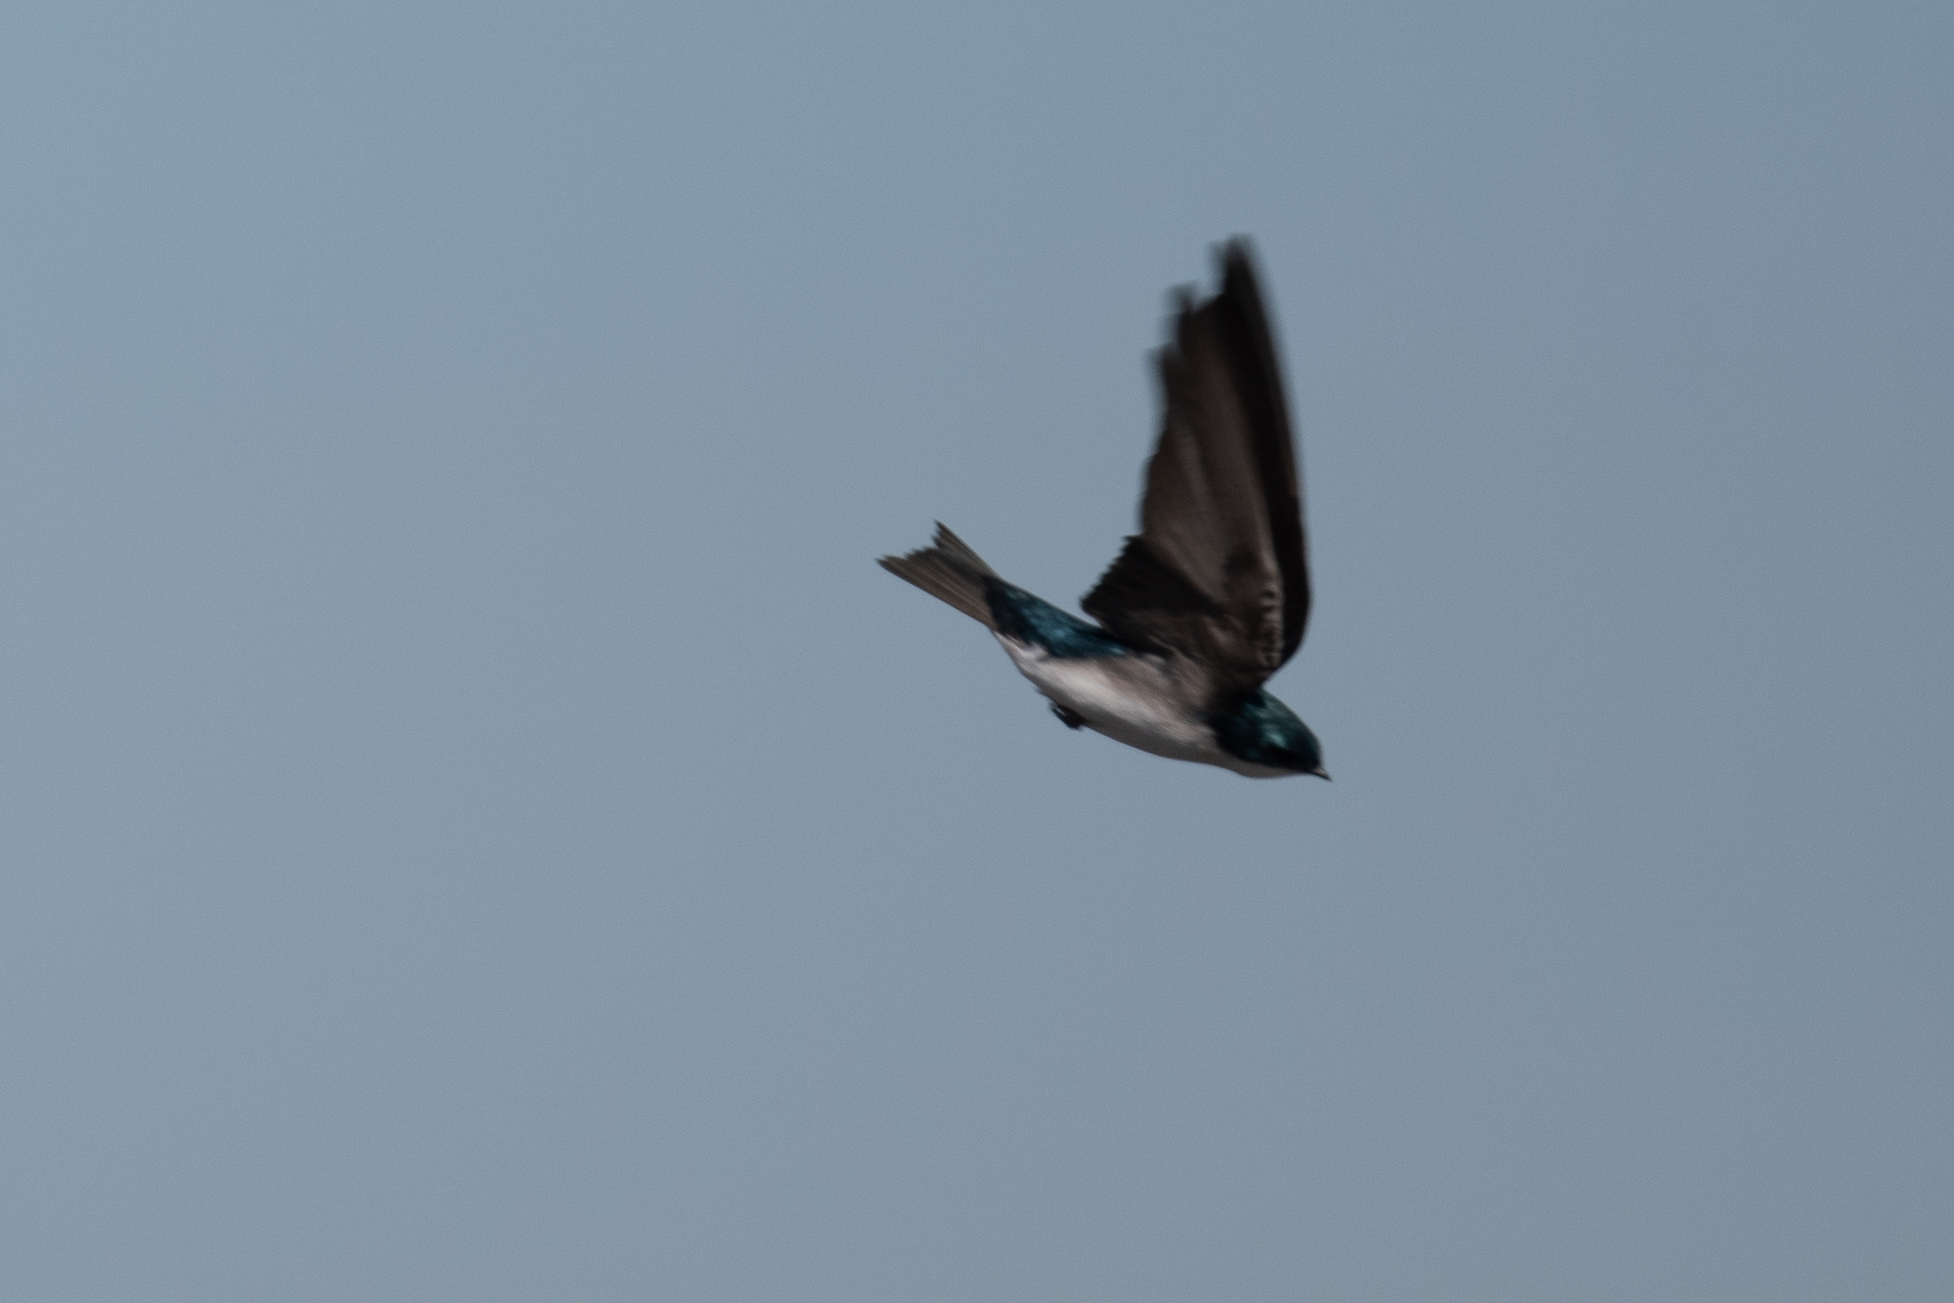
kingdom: Animalia
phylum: Chordata
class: Aves
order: Passeriformes
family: Hirundinidae
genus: Tachycineta
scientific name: Tachycineta bicolor
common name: Tree swallow
